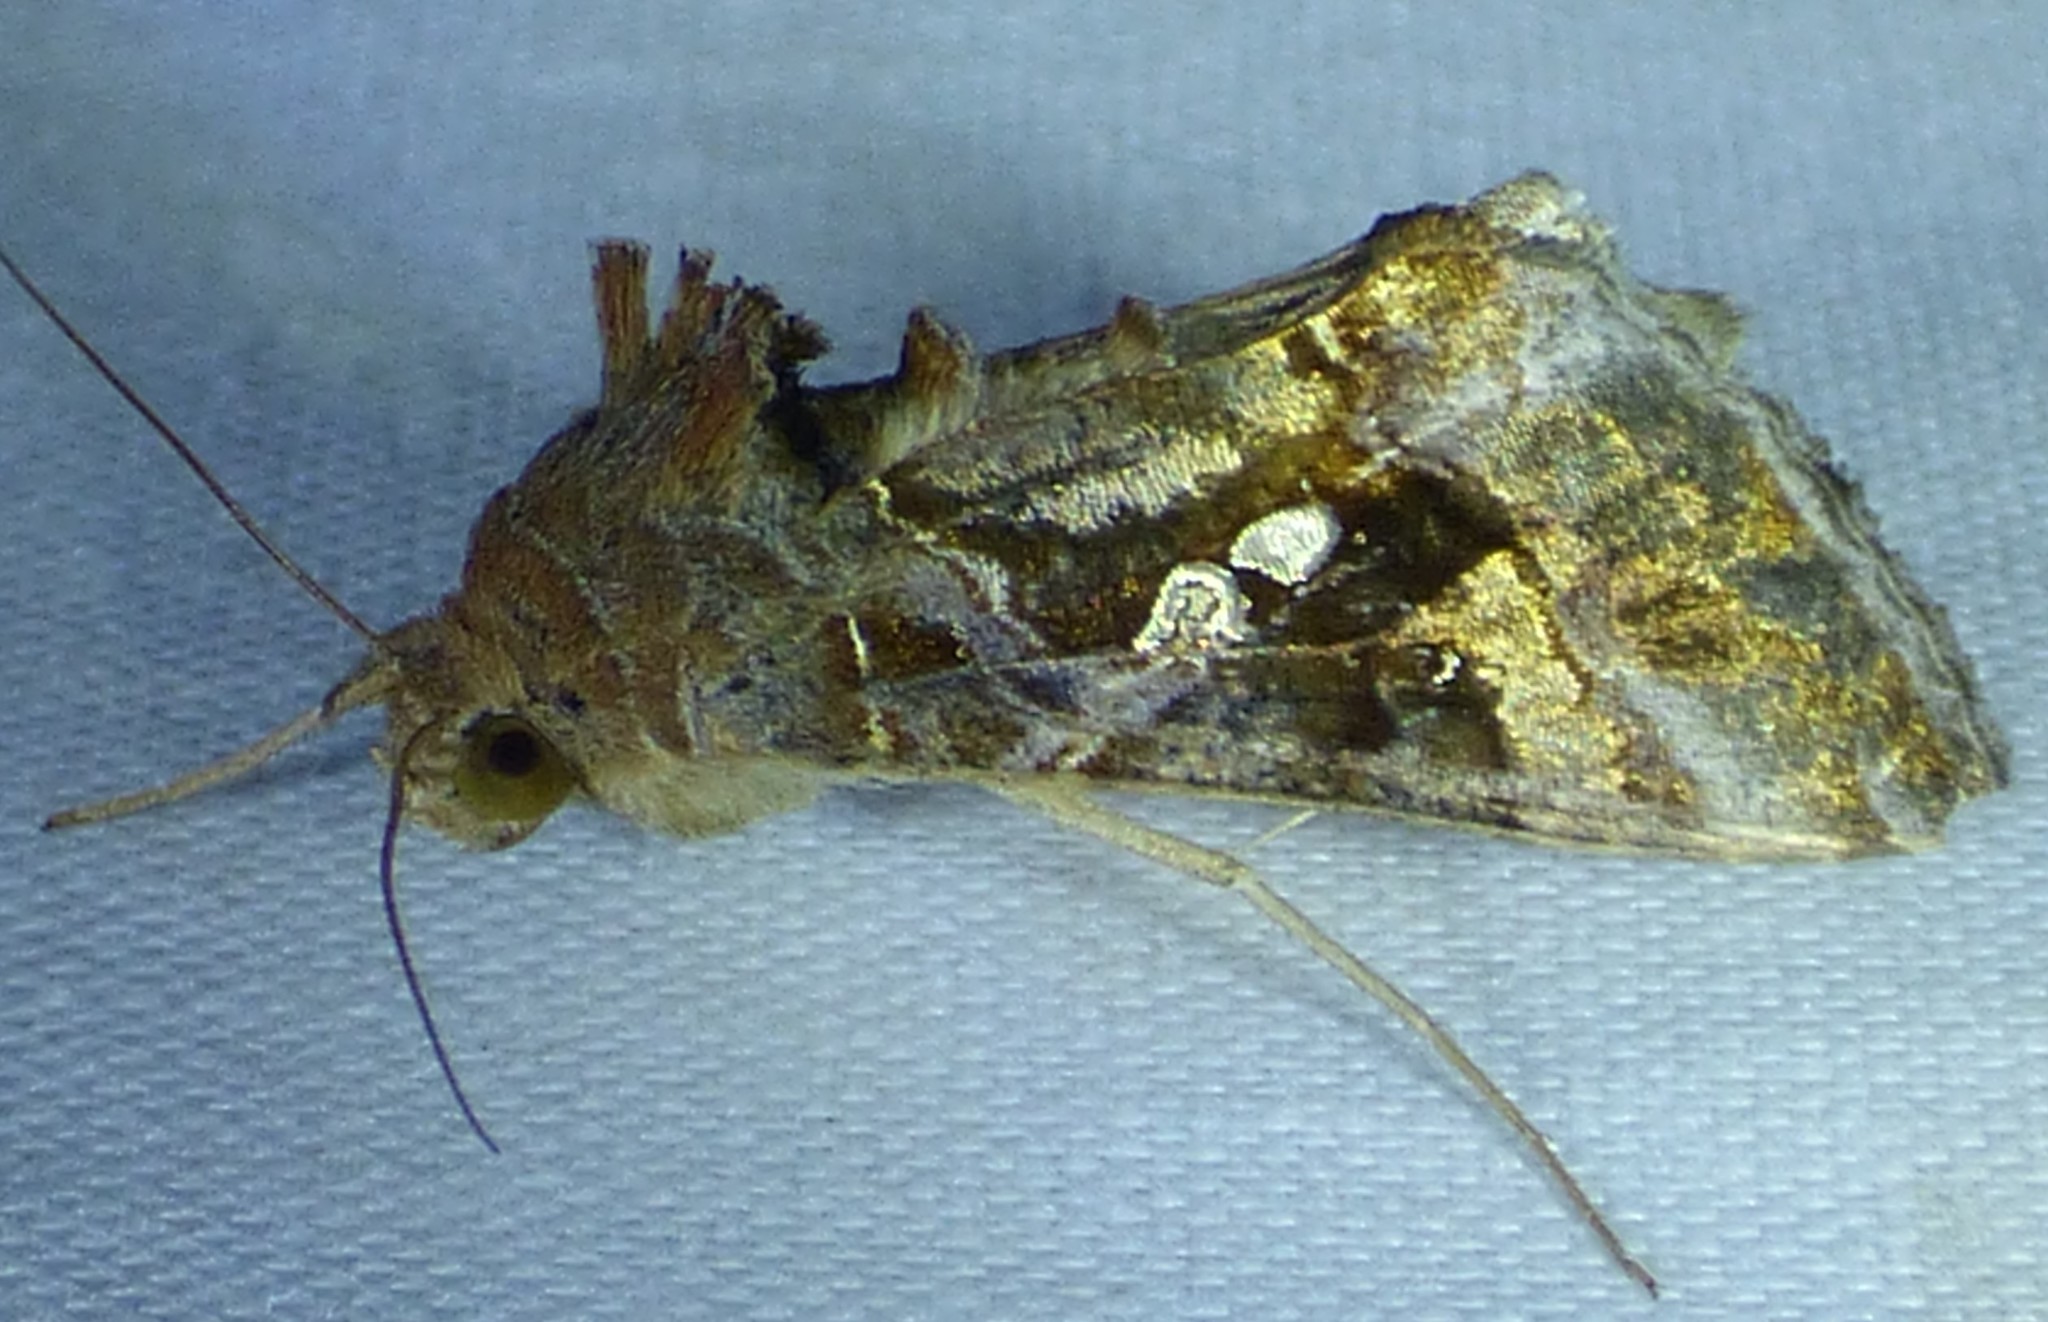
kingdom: Animalia
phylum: Arthropoda
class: Insecta
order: Lepidoptera
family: Noctuidae
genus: Chrysodeixis
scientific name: Chrysodeixis includens
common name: Cutworm moth
